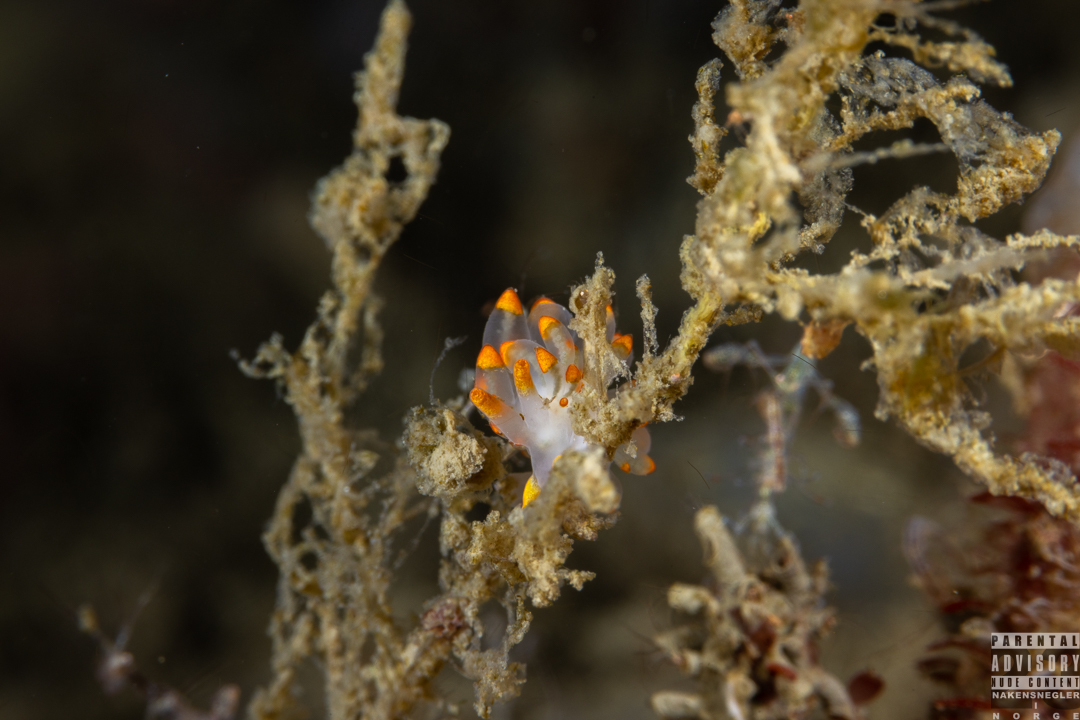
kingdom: Animalia
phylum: Mollusca
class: Gastropoda
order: Nudibranchia
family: Eubranchidae
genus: Amphorina
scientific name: Amphorina farrani
